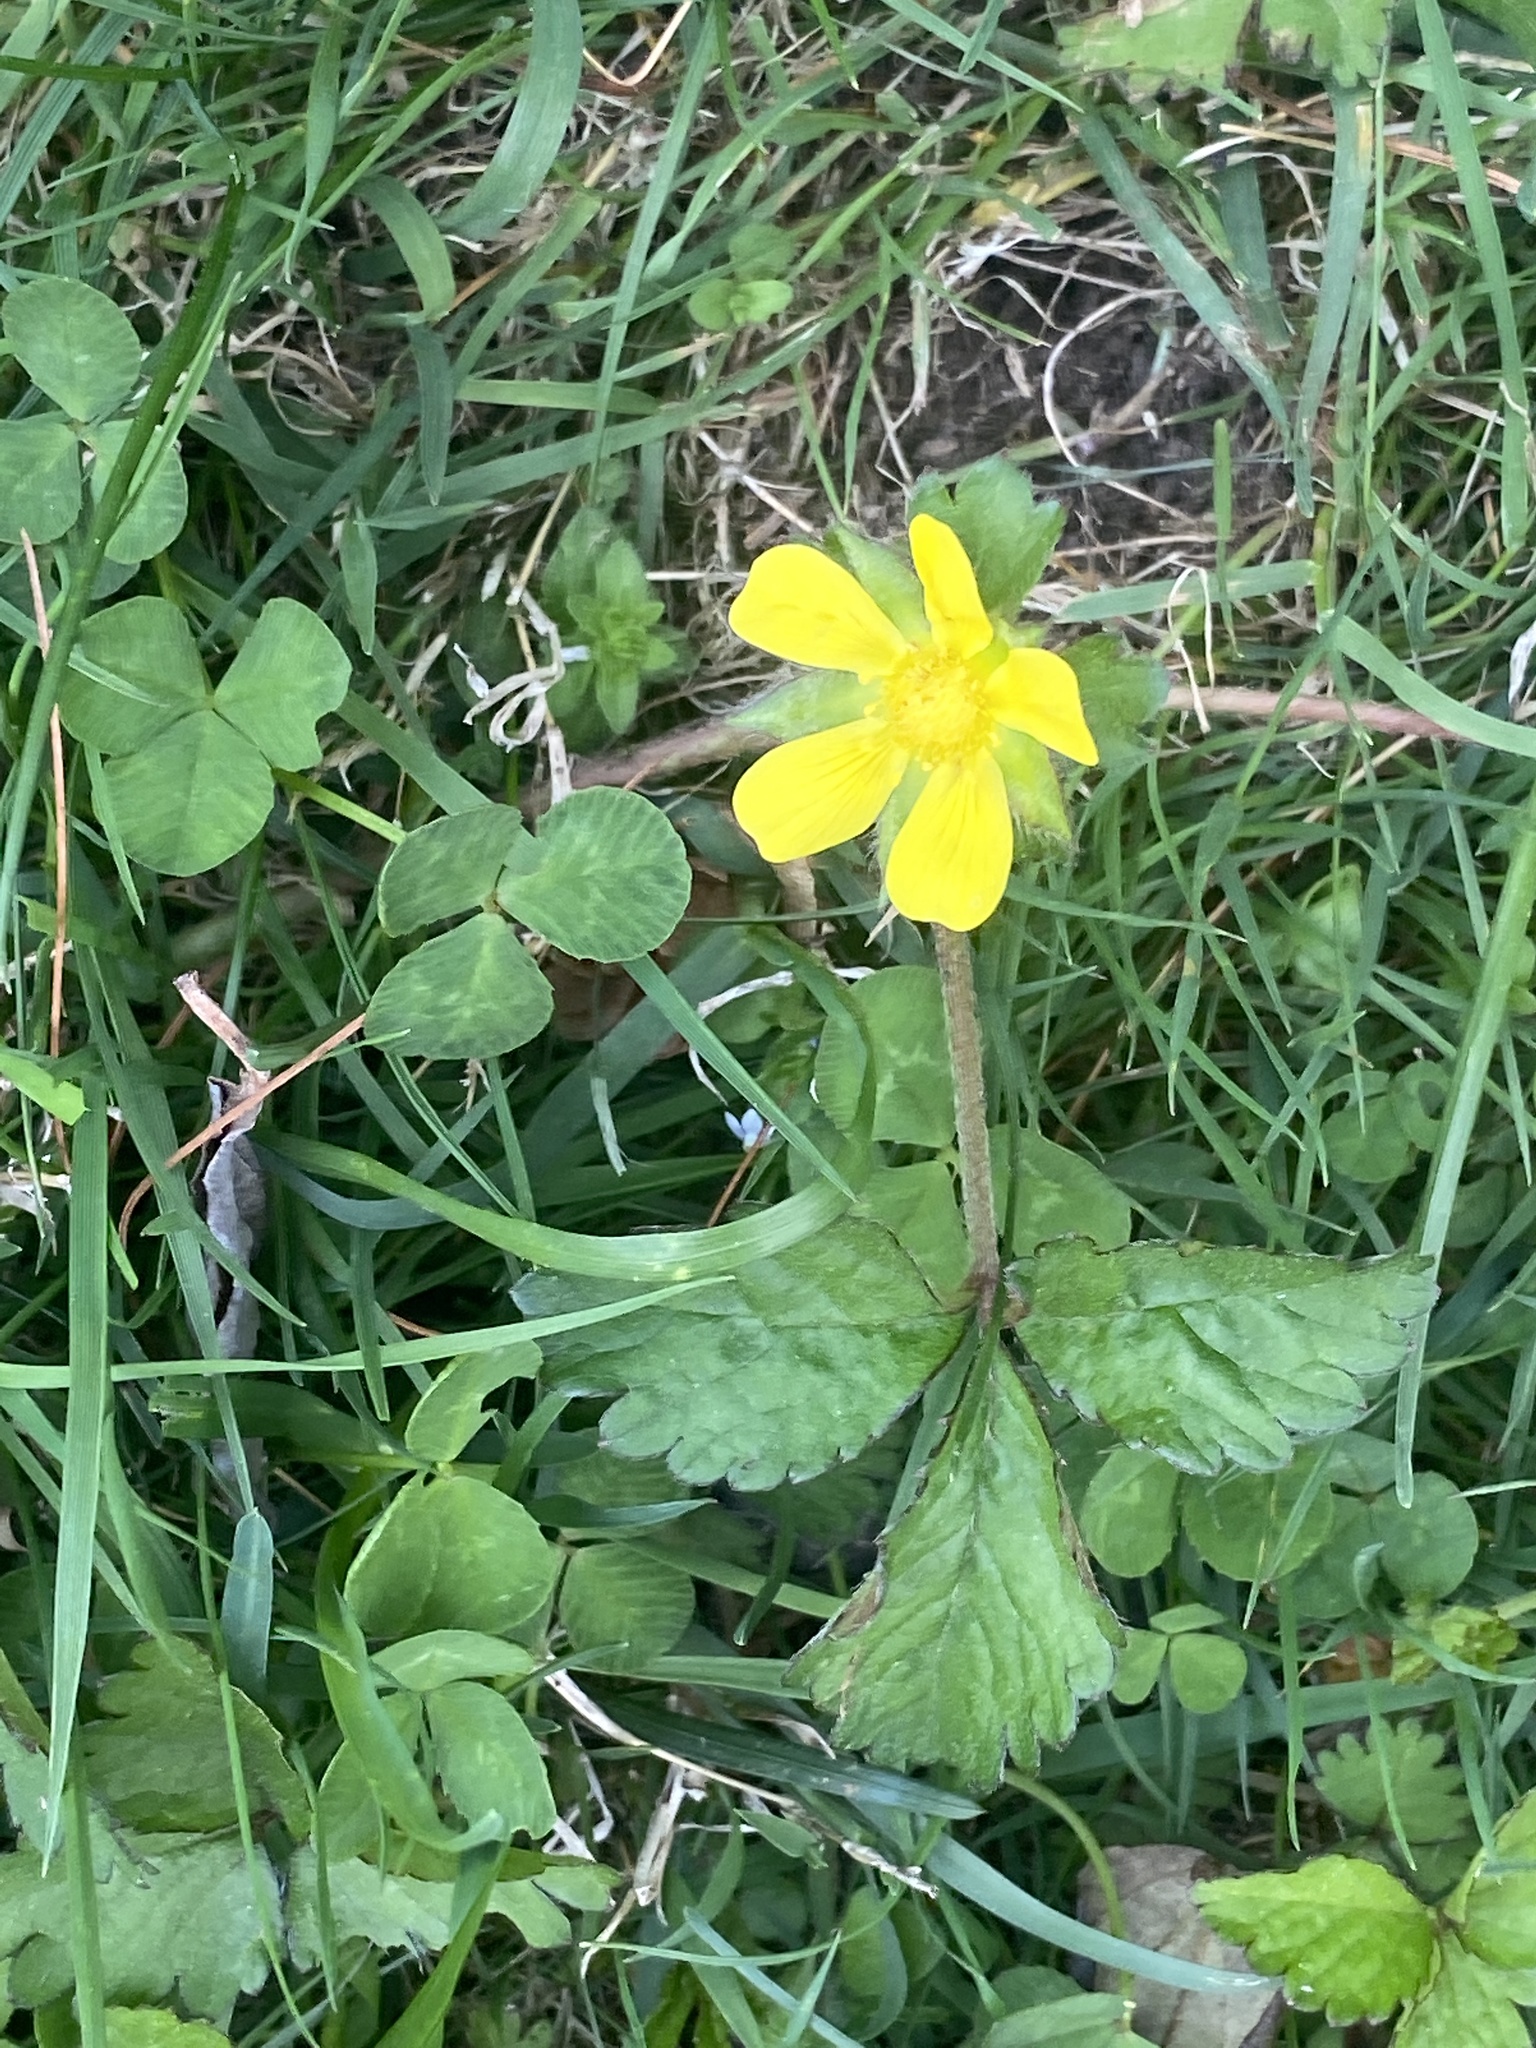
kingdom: Plantae
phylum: Tracheophyta
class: Magnoliopsida
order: Rosales
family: Rosaceae
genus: Potentilla
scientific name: Potentilla indica
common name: Yellow-flowered strawberry
